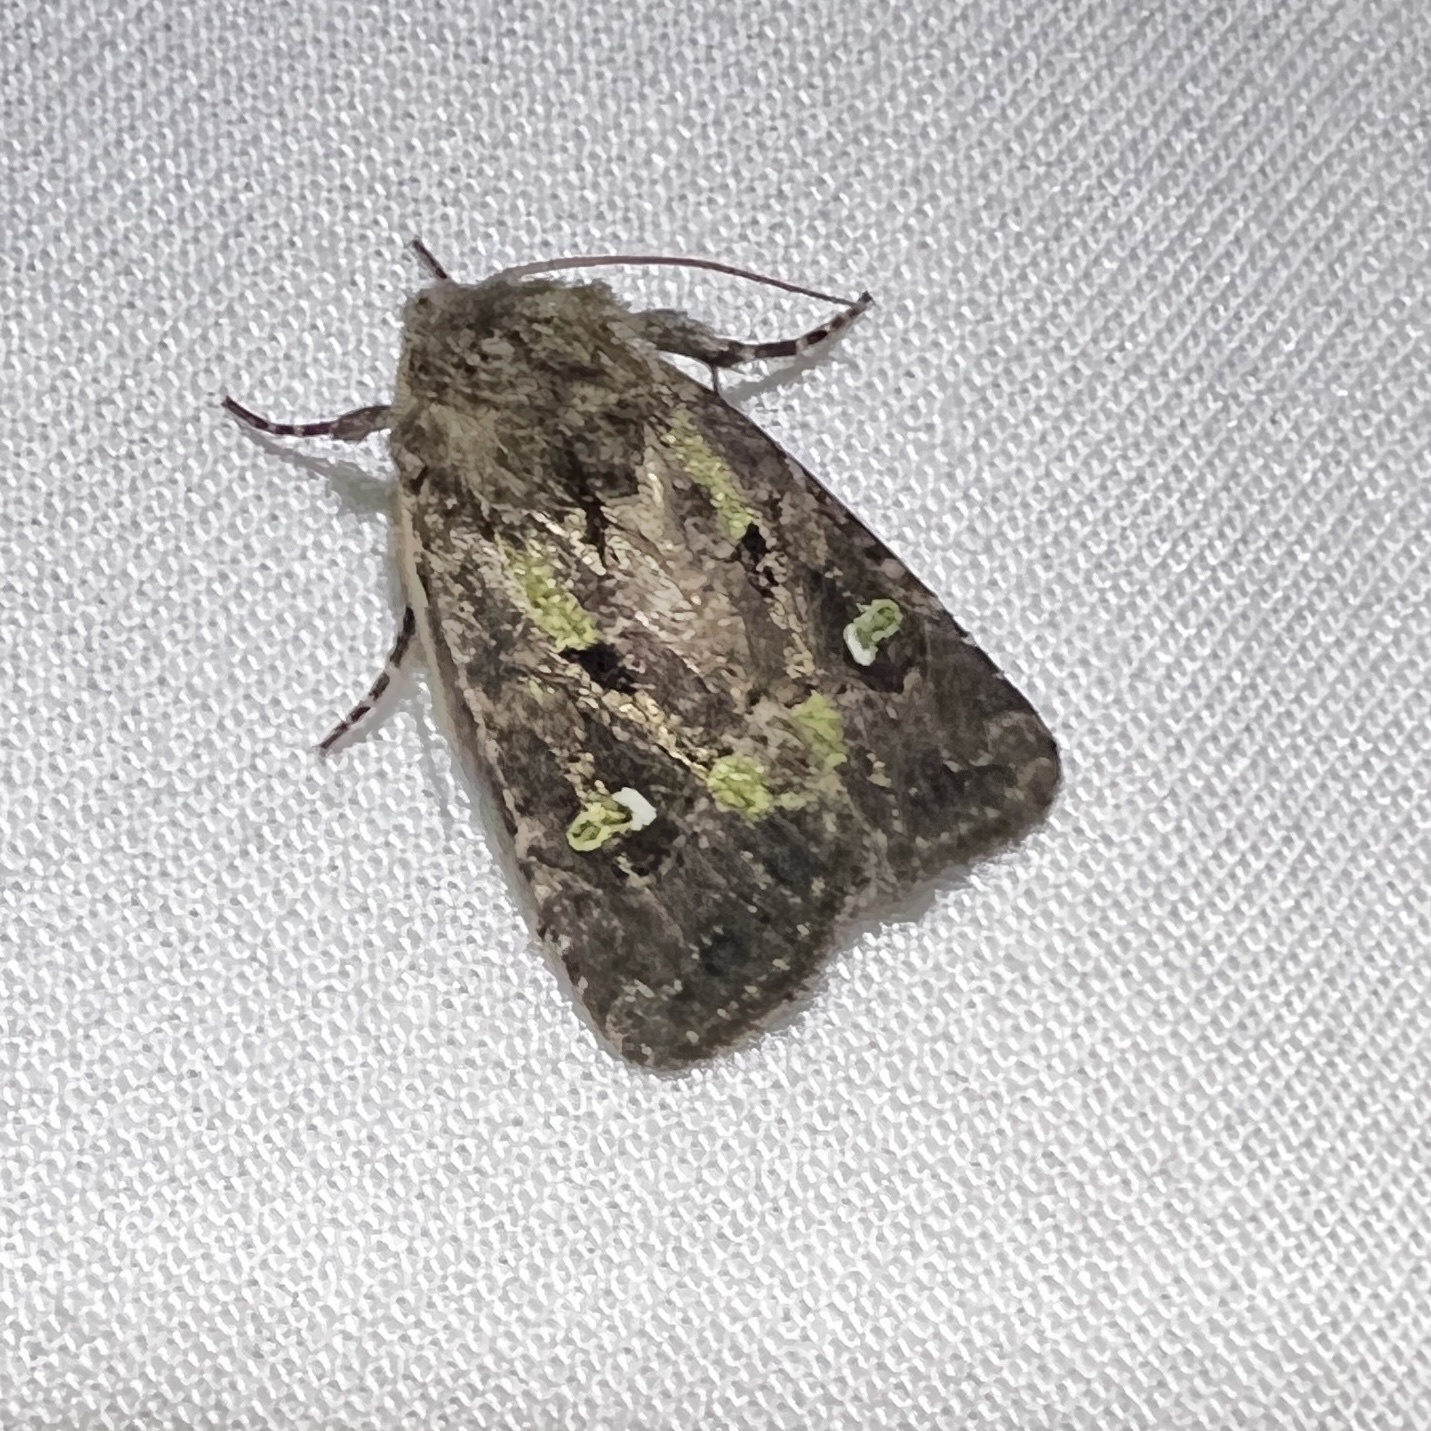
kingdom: Animalia
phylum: Arthropoda
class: Insecta
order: Lepidoptera
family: Noctuidae
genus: Lacinipolia
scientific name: Lacinipolia renigera
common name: Kidney-spotted minor
